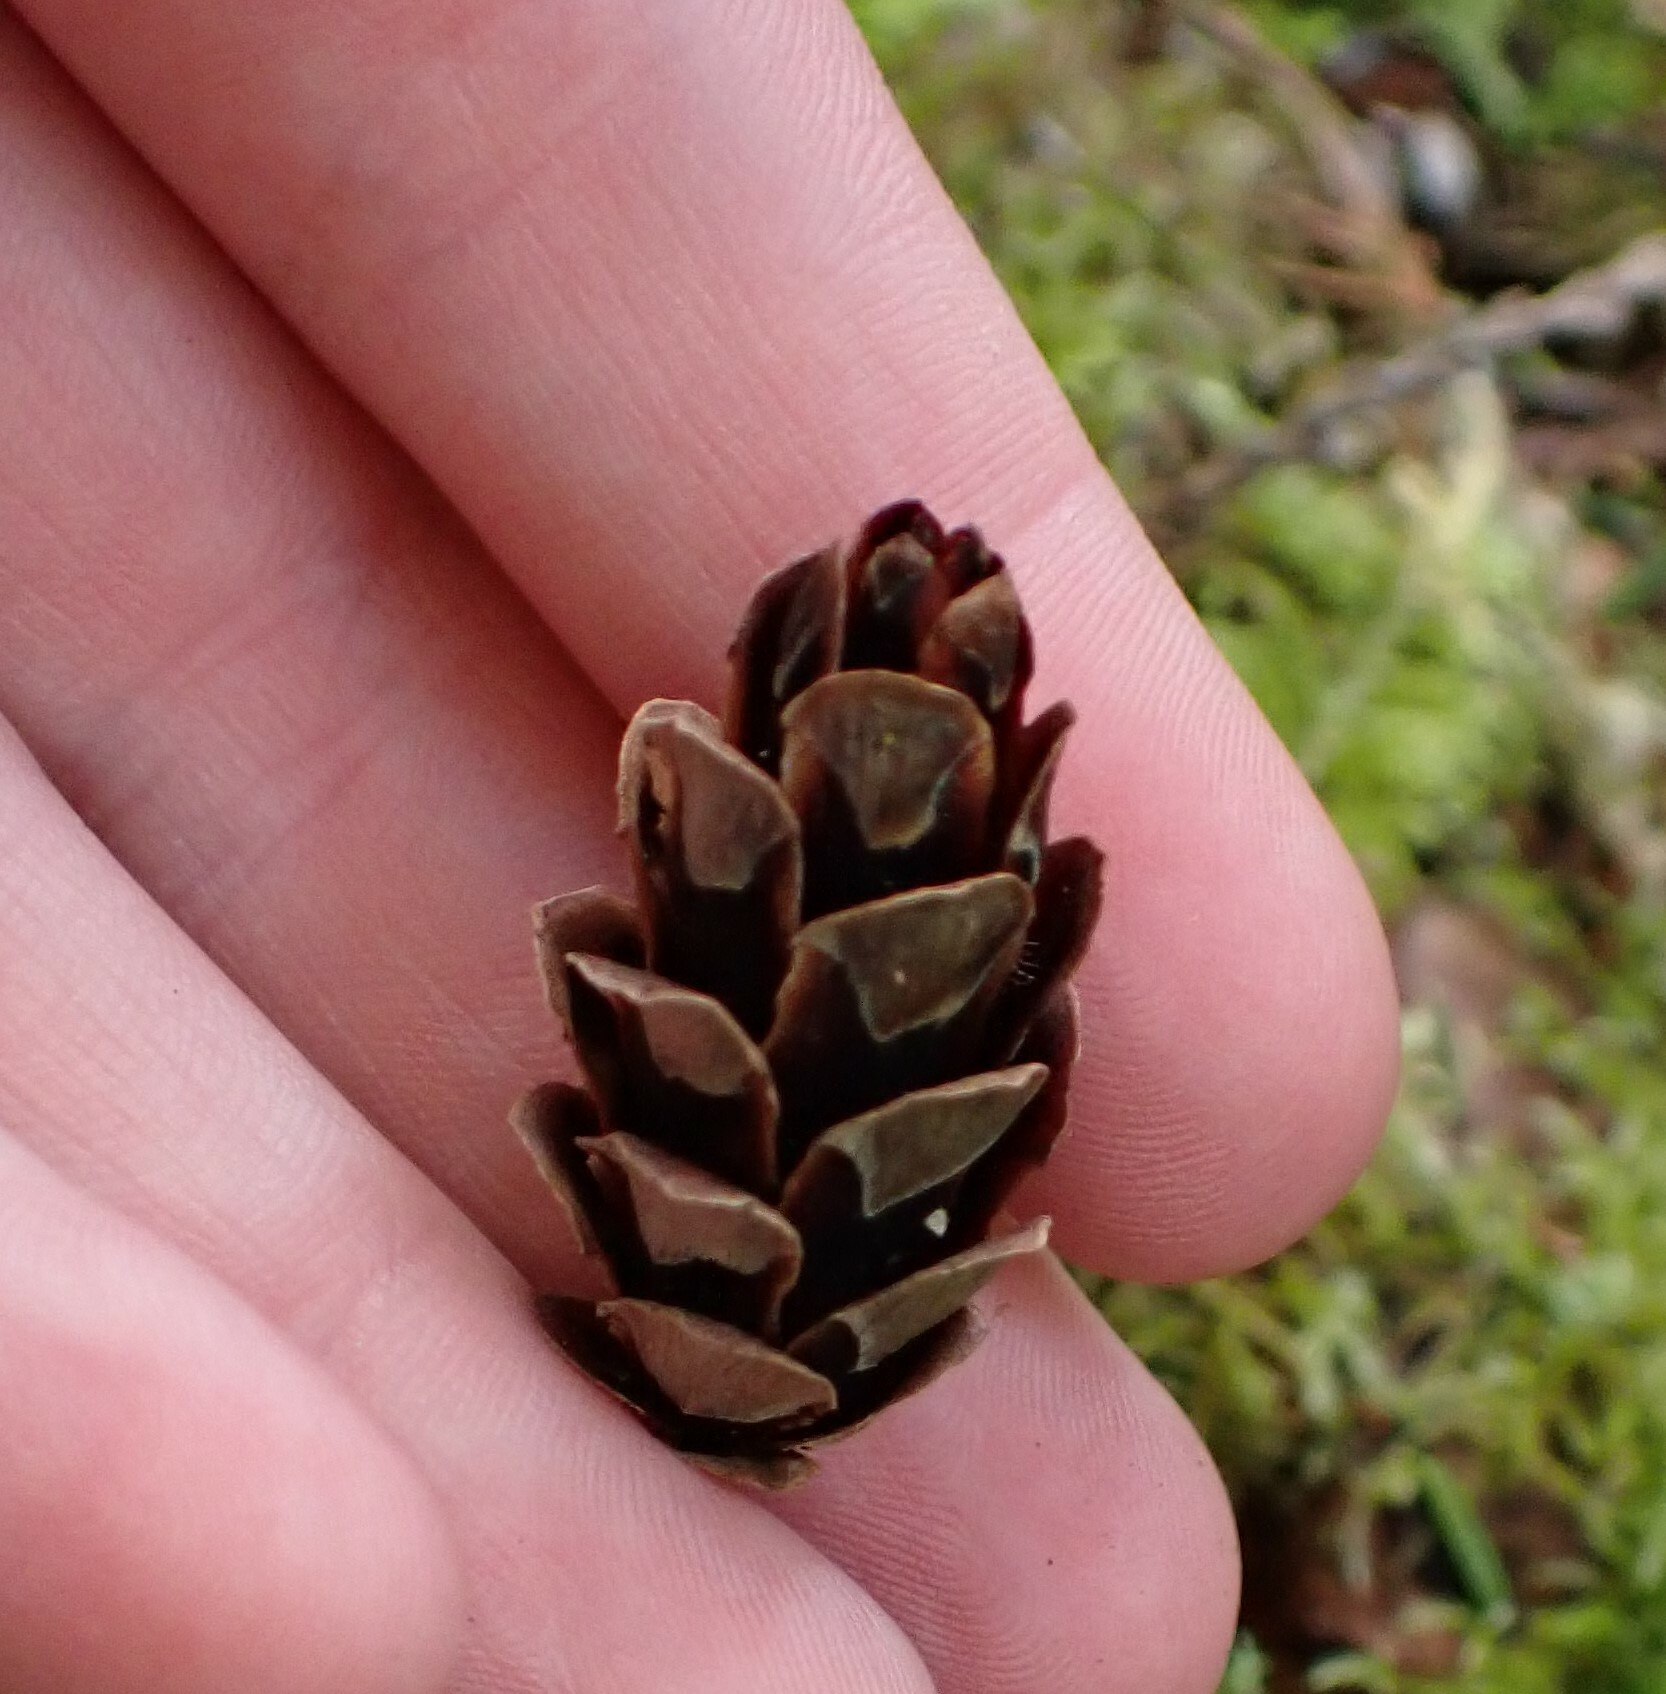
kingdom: Plantae
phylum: Tracheophyta
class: Pinopsida
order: Pinales
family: Pinaceae
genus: Tsuga
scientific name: Tsuga heterophylla
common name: Western hemlock
